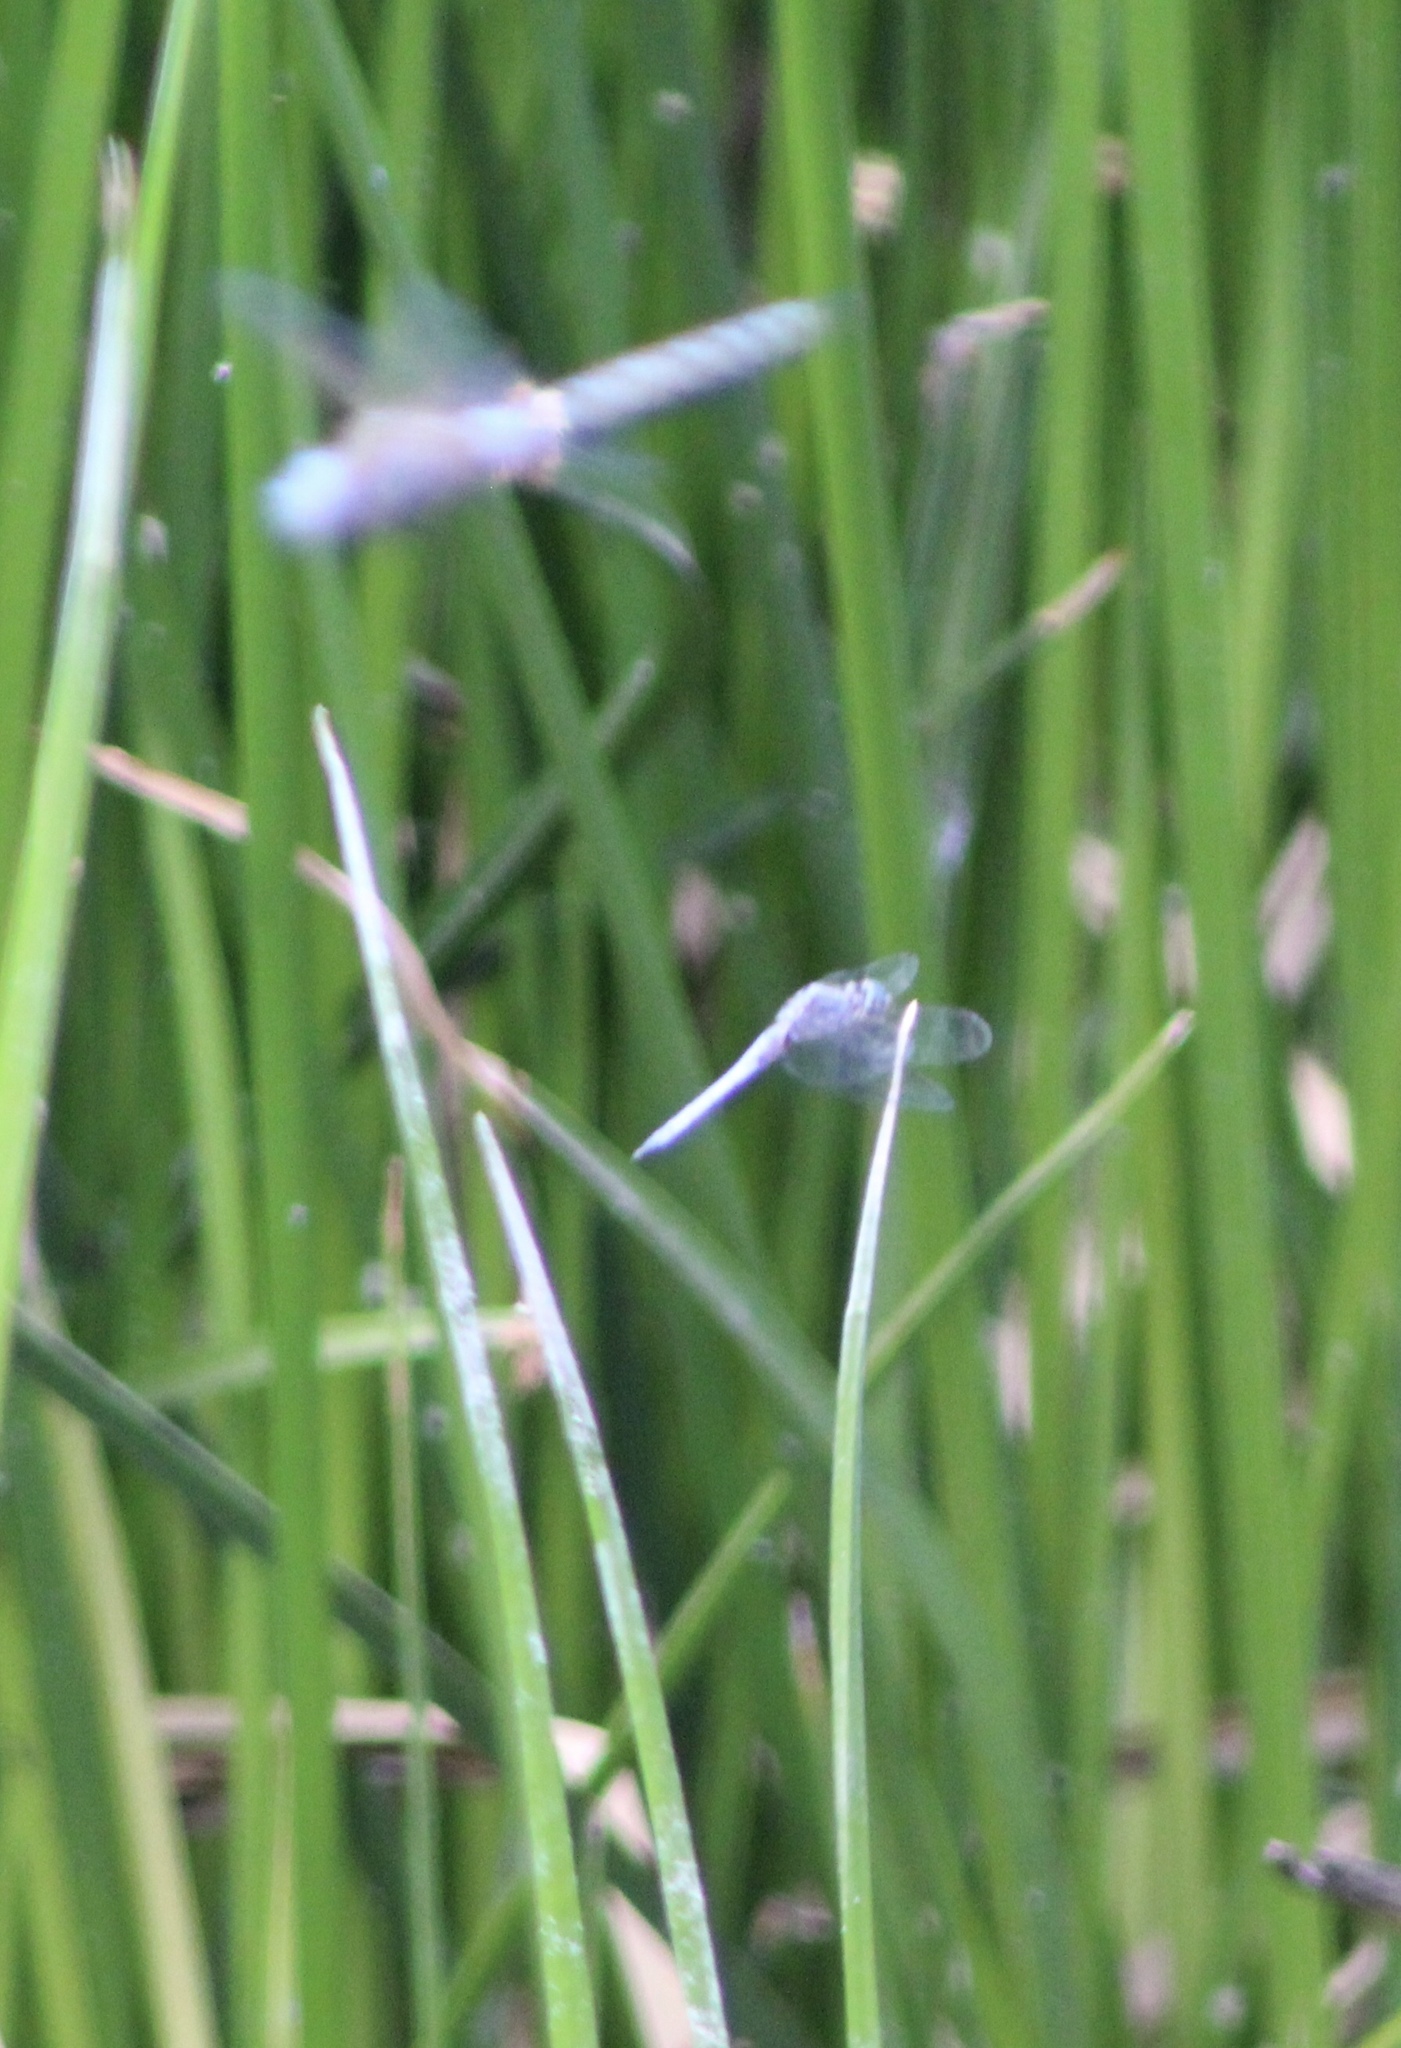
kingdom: Animalia
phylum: Arthropoda
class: Insecta
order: Odonata
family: Libellulidae
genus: Pachydiplax
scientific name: Pachydiplax longipennis
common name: Blue dasher
